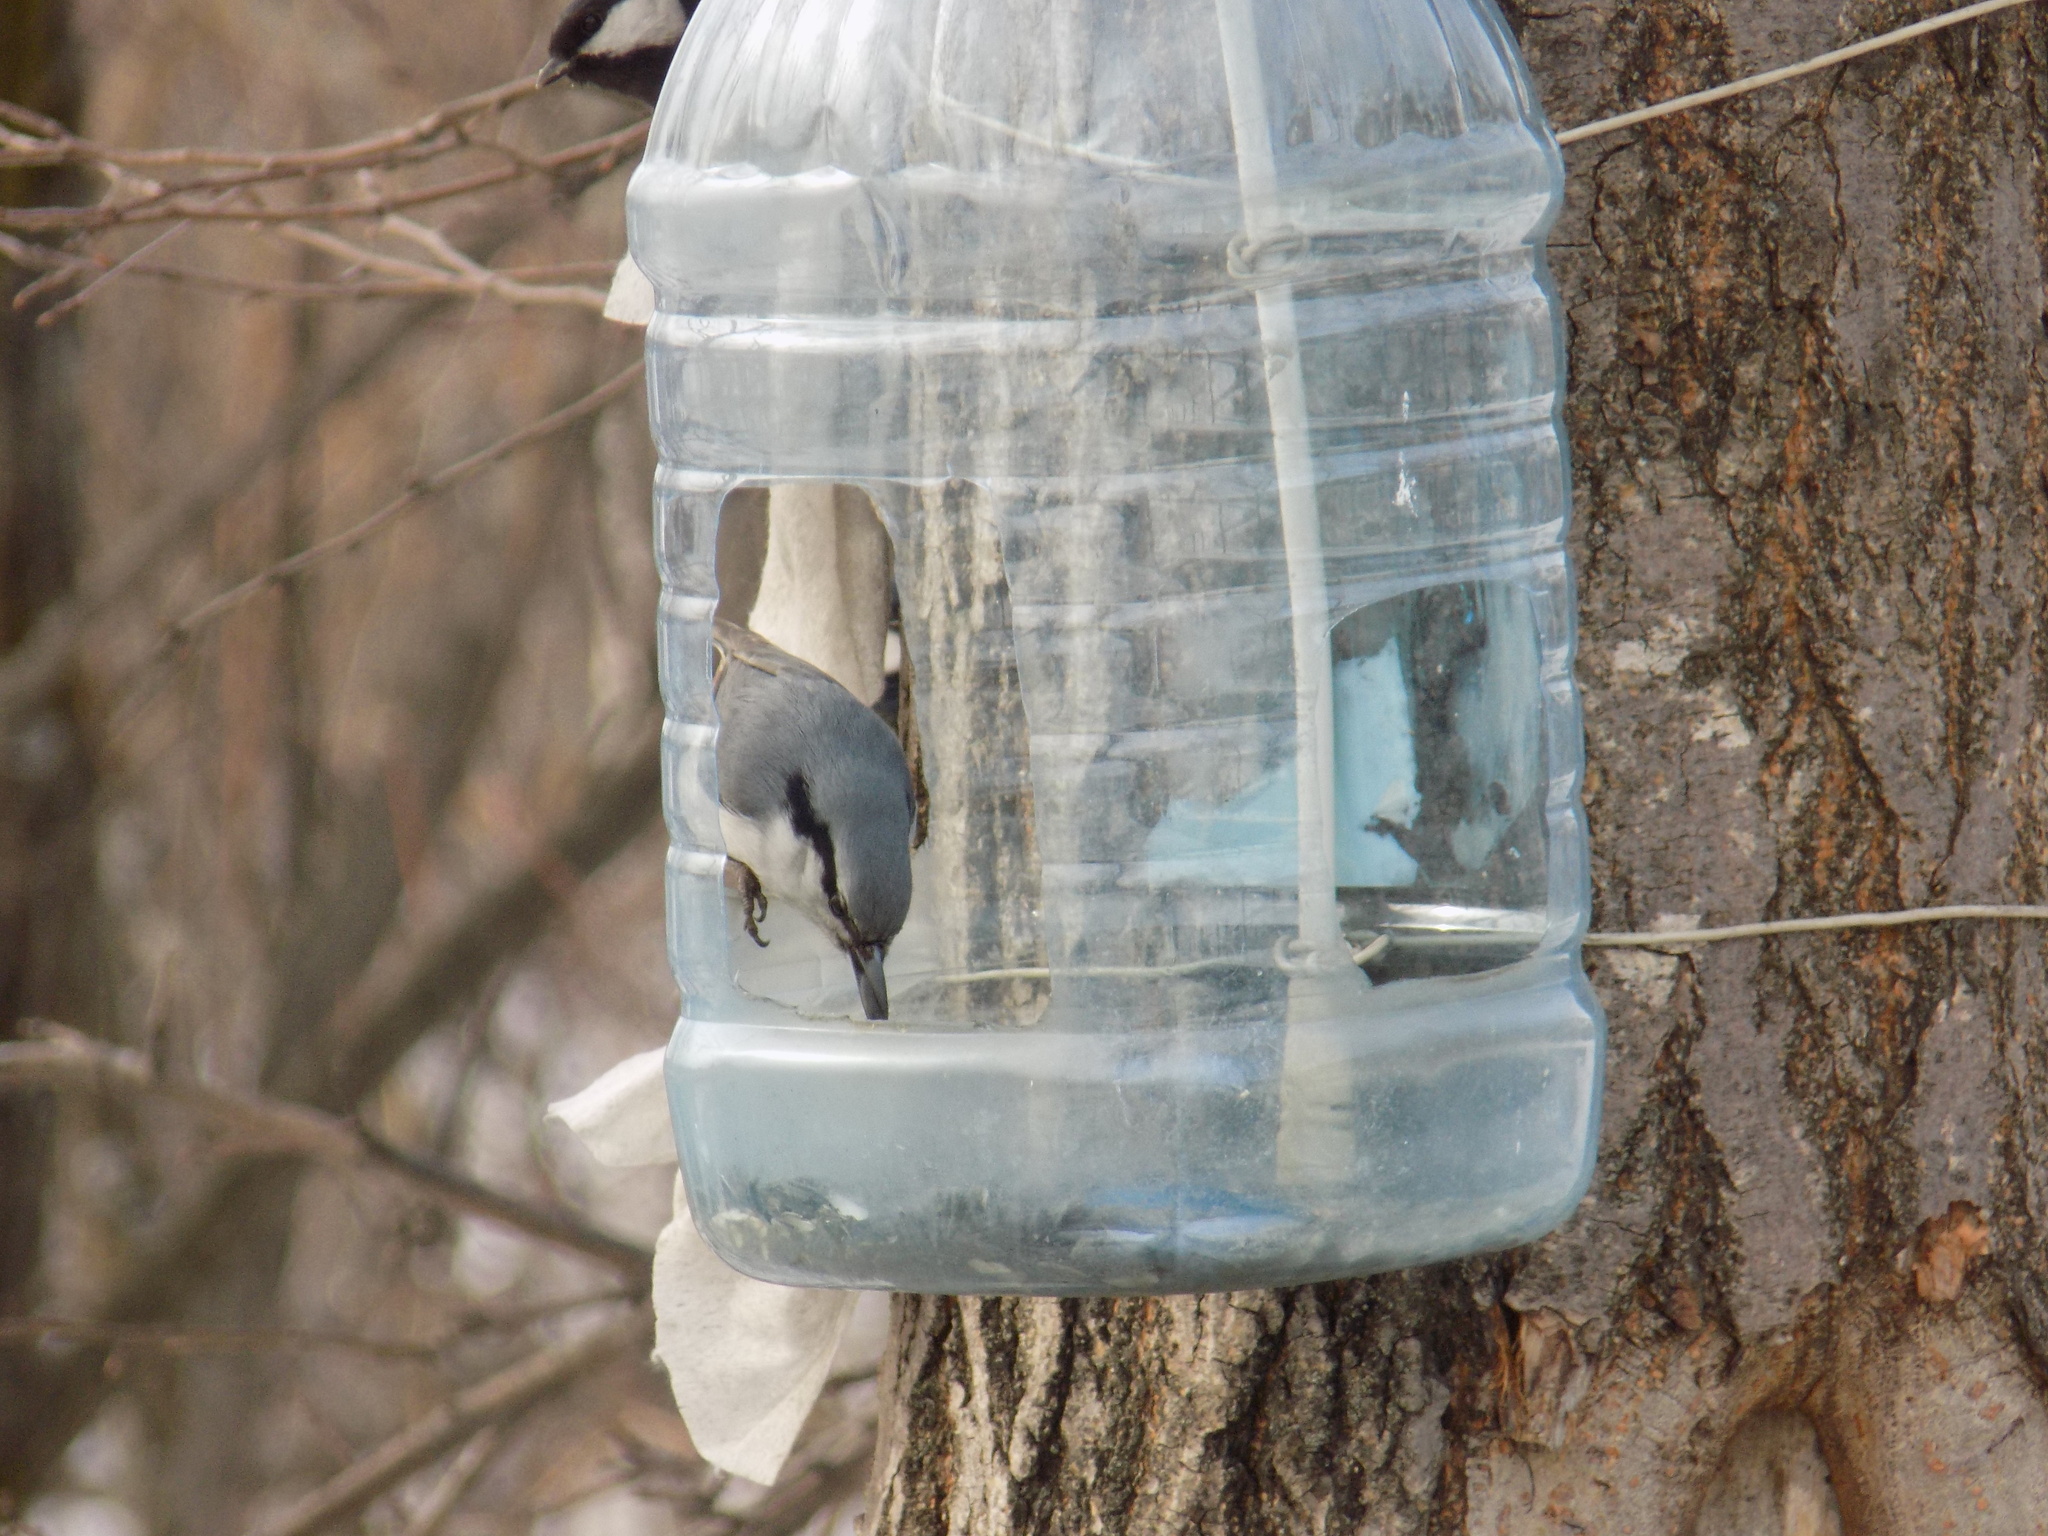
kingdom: Animalia
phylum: Chordata
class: Aves
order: Passeriformes
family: Sittidae
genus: Sitta
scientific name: Sitta europaea
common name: Eurasian nuthatch
